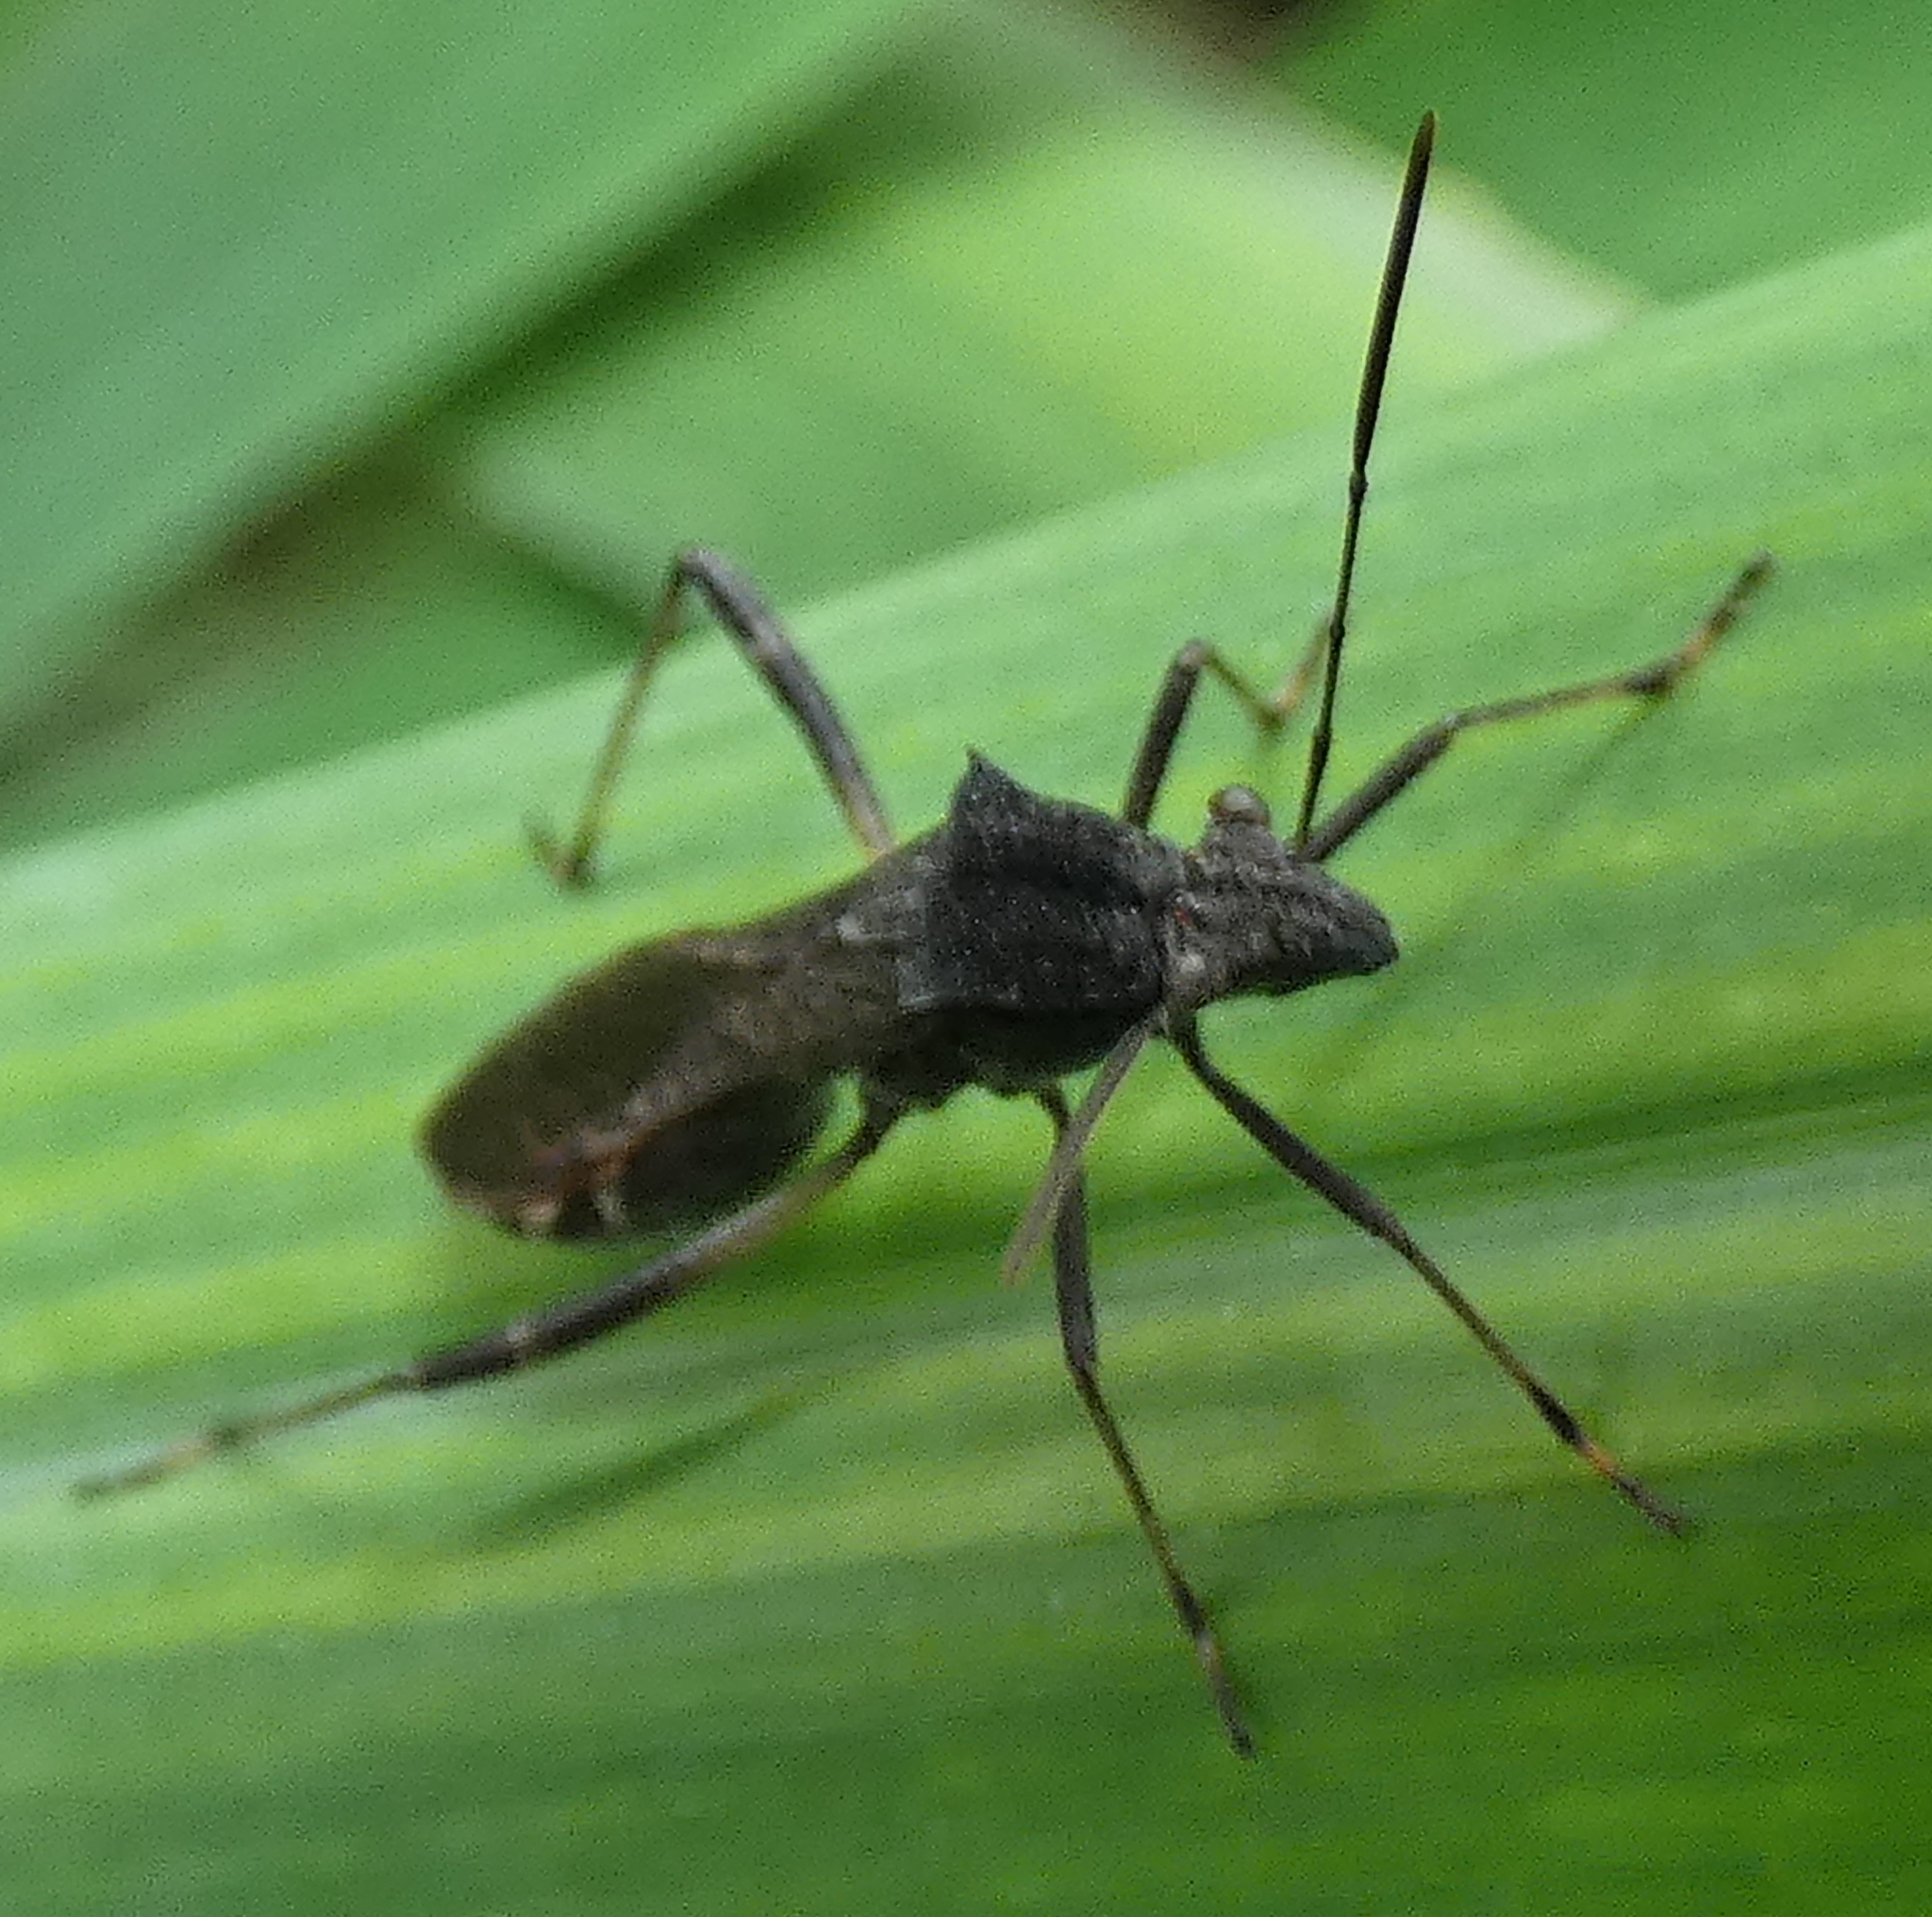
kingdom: Animalia
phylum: Arthropoda
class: Insecta
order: Hemiptera
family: Alydidae
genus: Neomegalotomus
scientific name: Neomegalotomus parvus
